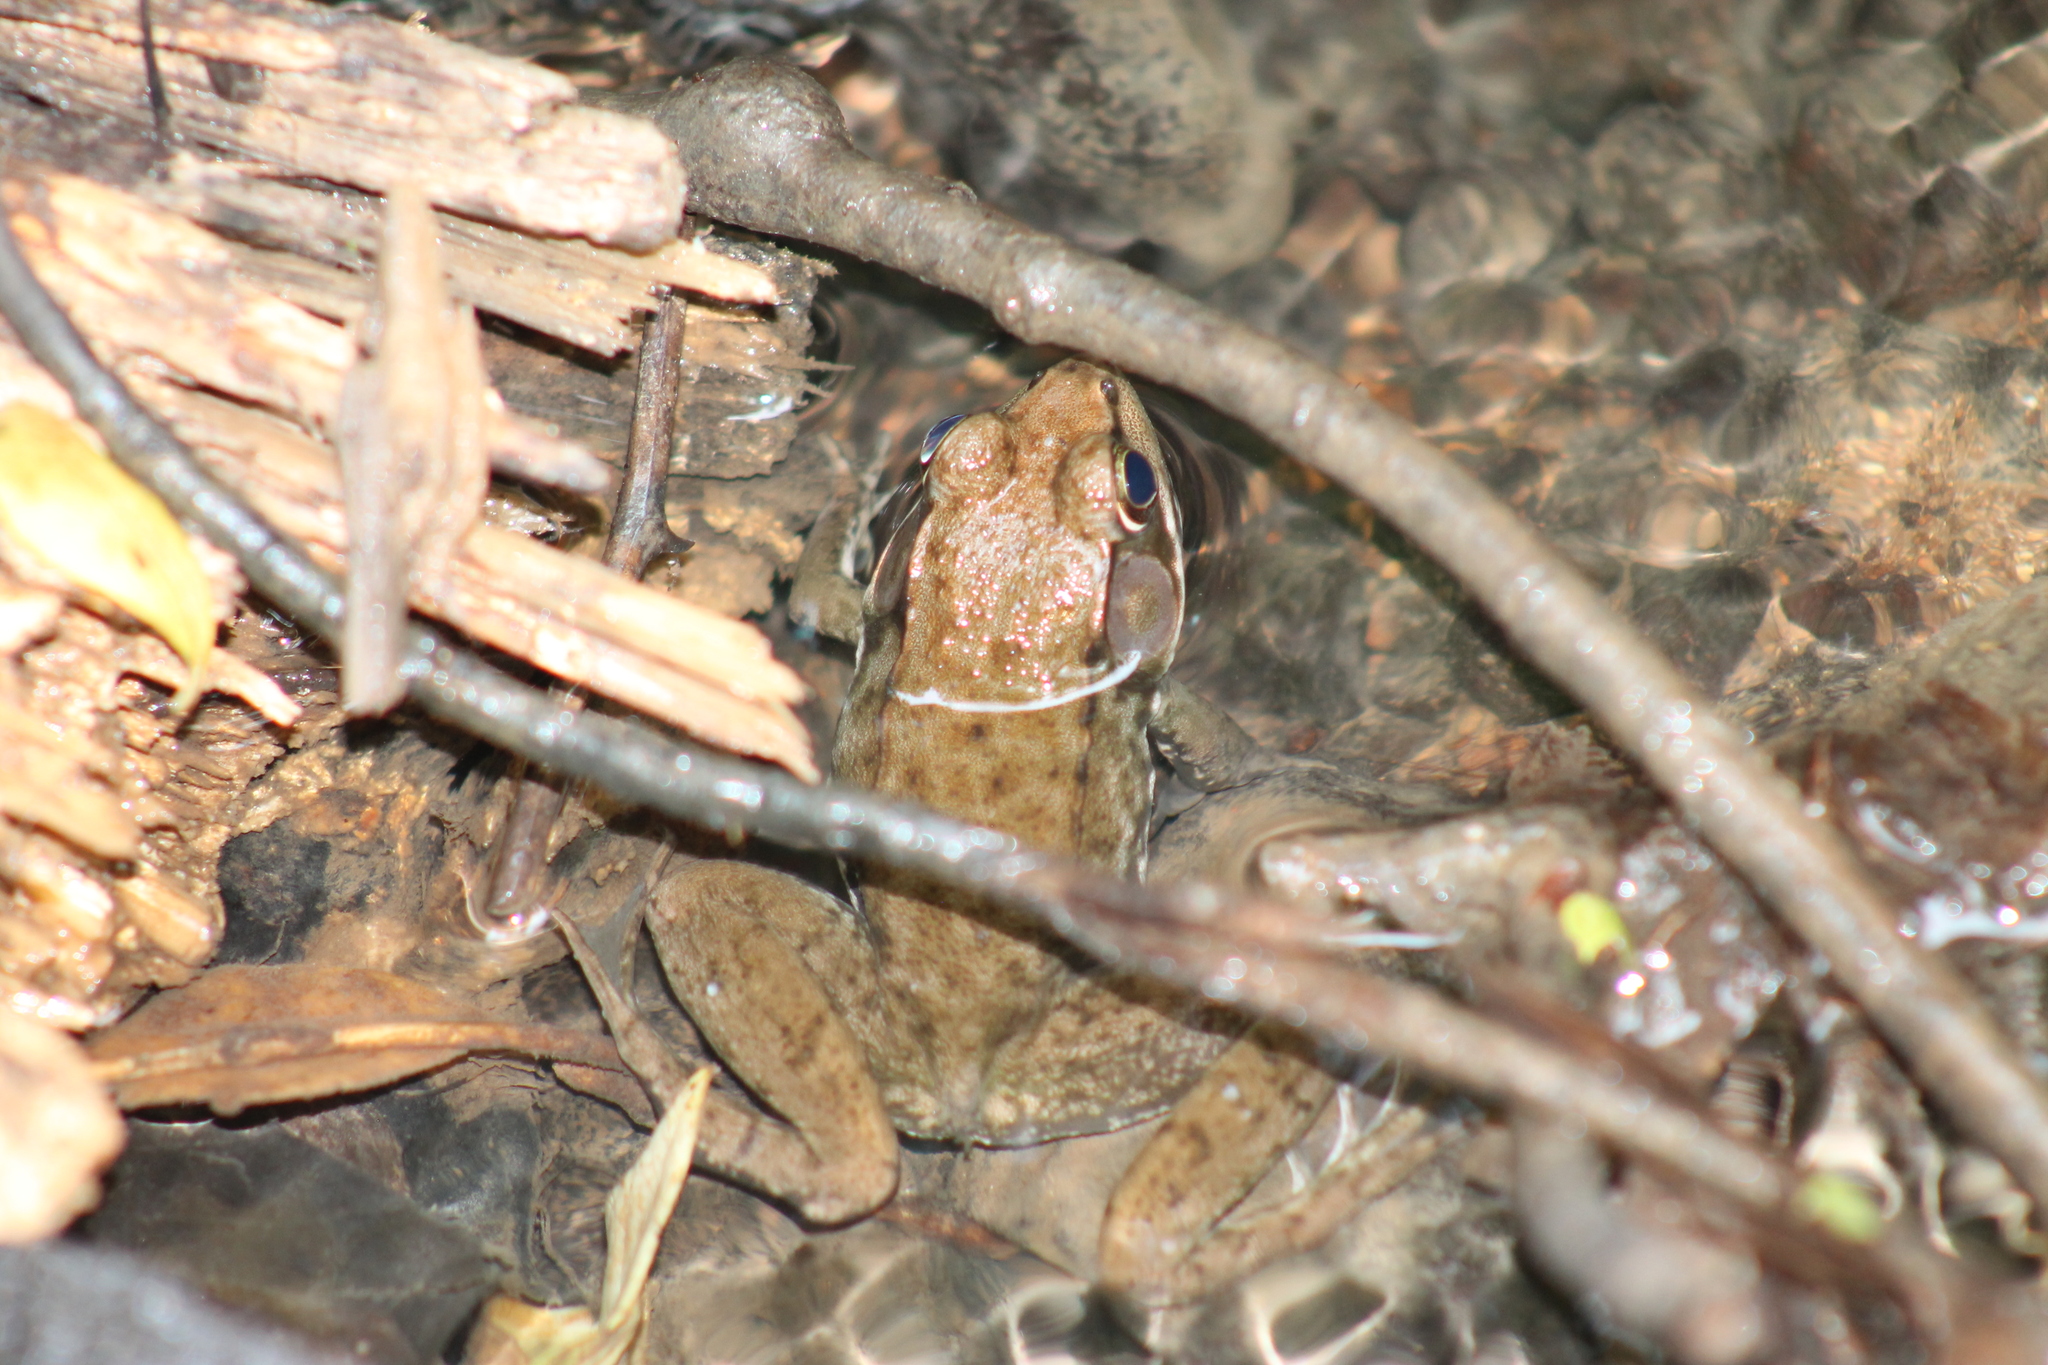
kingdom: Animalia
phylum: Chordata
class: Amphibia
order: Anura
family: Ranidae
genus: Lithobates
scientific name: Lithobates clamitans
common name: Green frog
